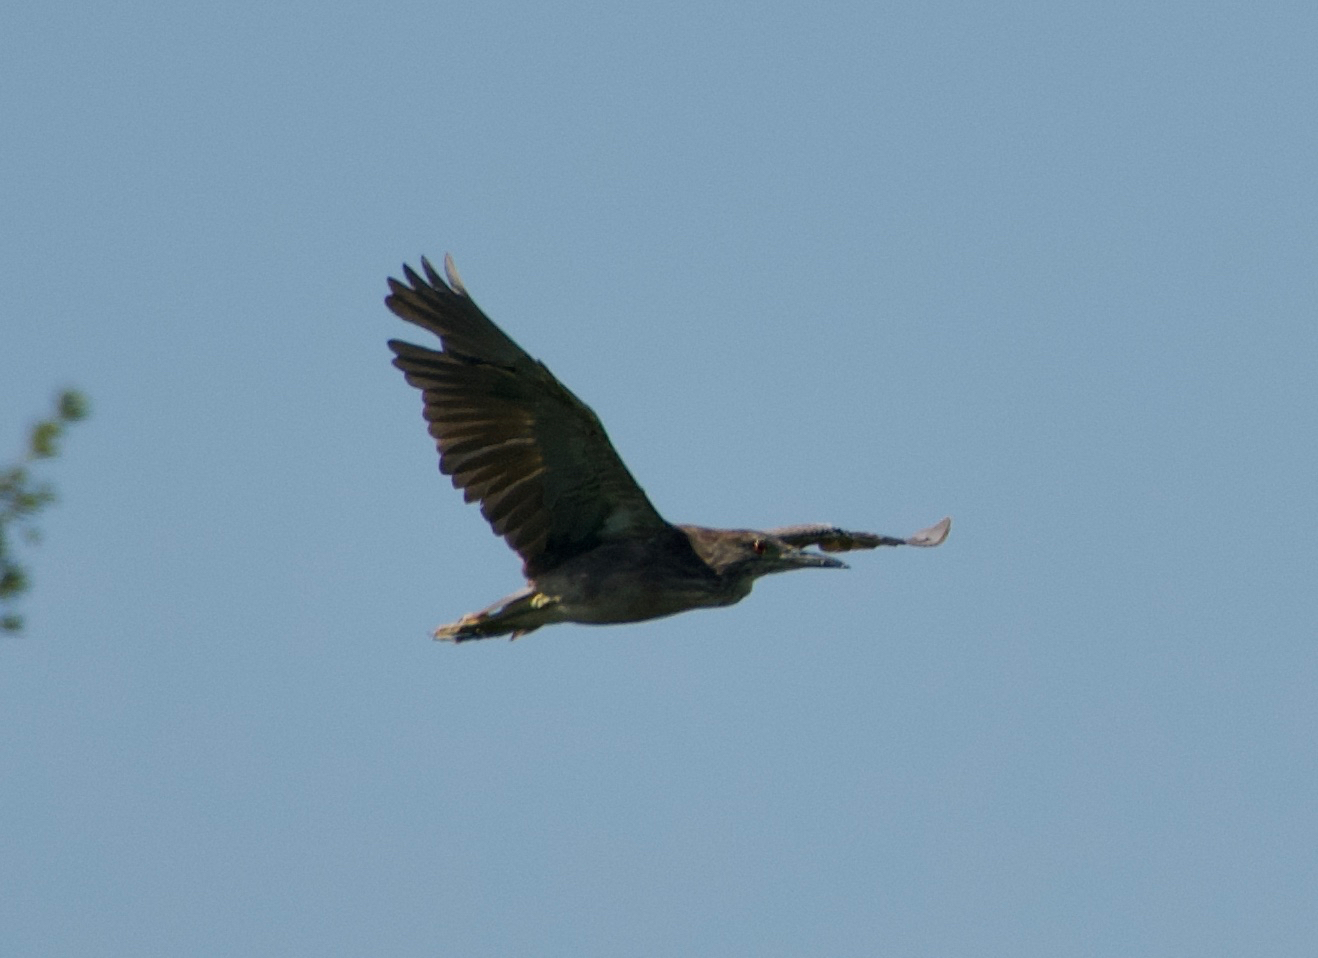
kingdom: Animalia
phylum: Chordata
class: Aves
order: Pelecaniformes
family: Ardeidae
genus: Nycticorax
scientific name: Nycticorax nycticorax
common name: Black-crowned night heron
